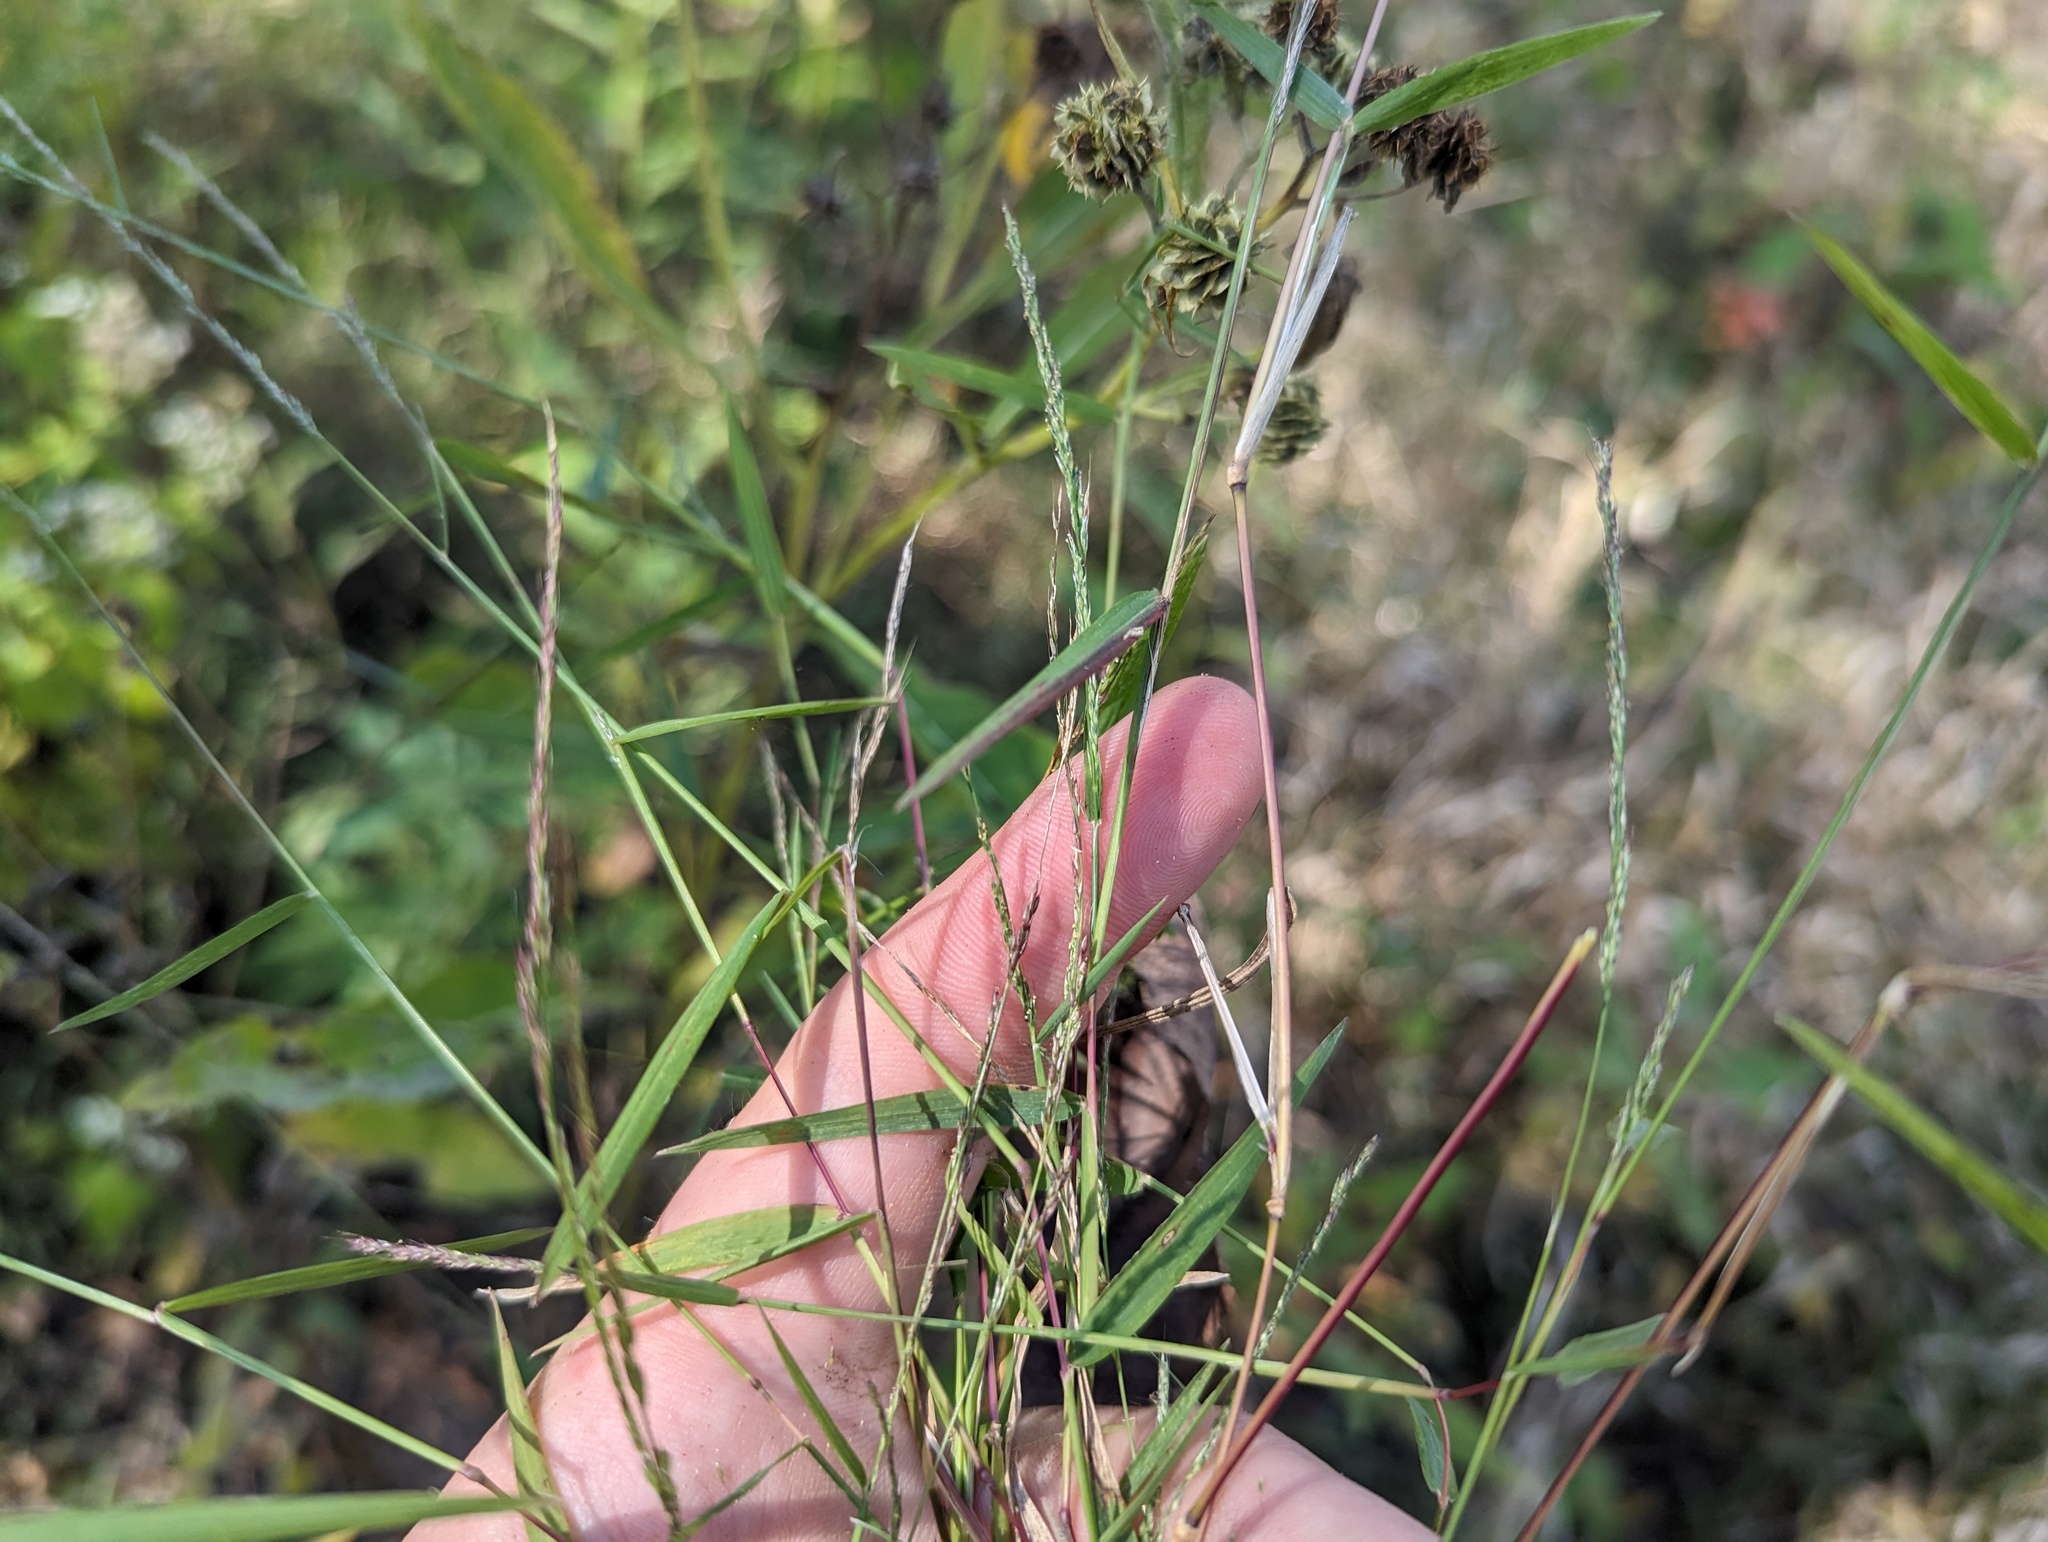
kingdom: Plantae
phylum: Tracheophyta
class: Liliopsida
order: Poales
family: Poaceae
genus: Muhlenbergia
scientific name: Muhlenbergia schreberi
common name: Nimblewill
